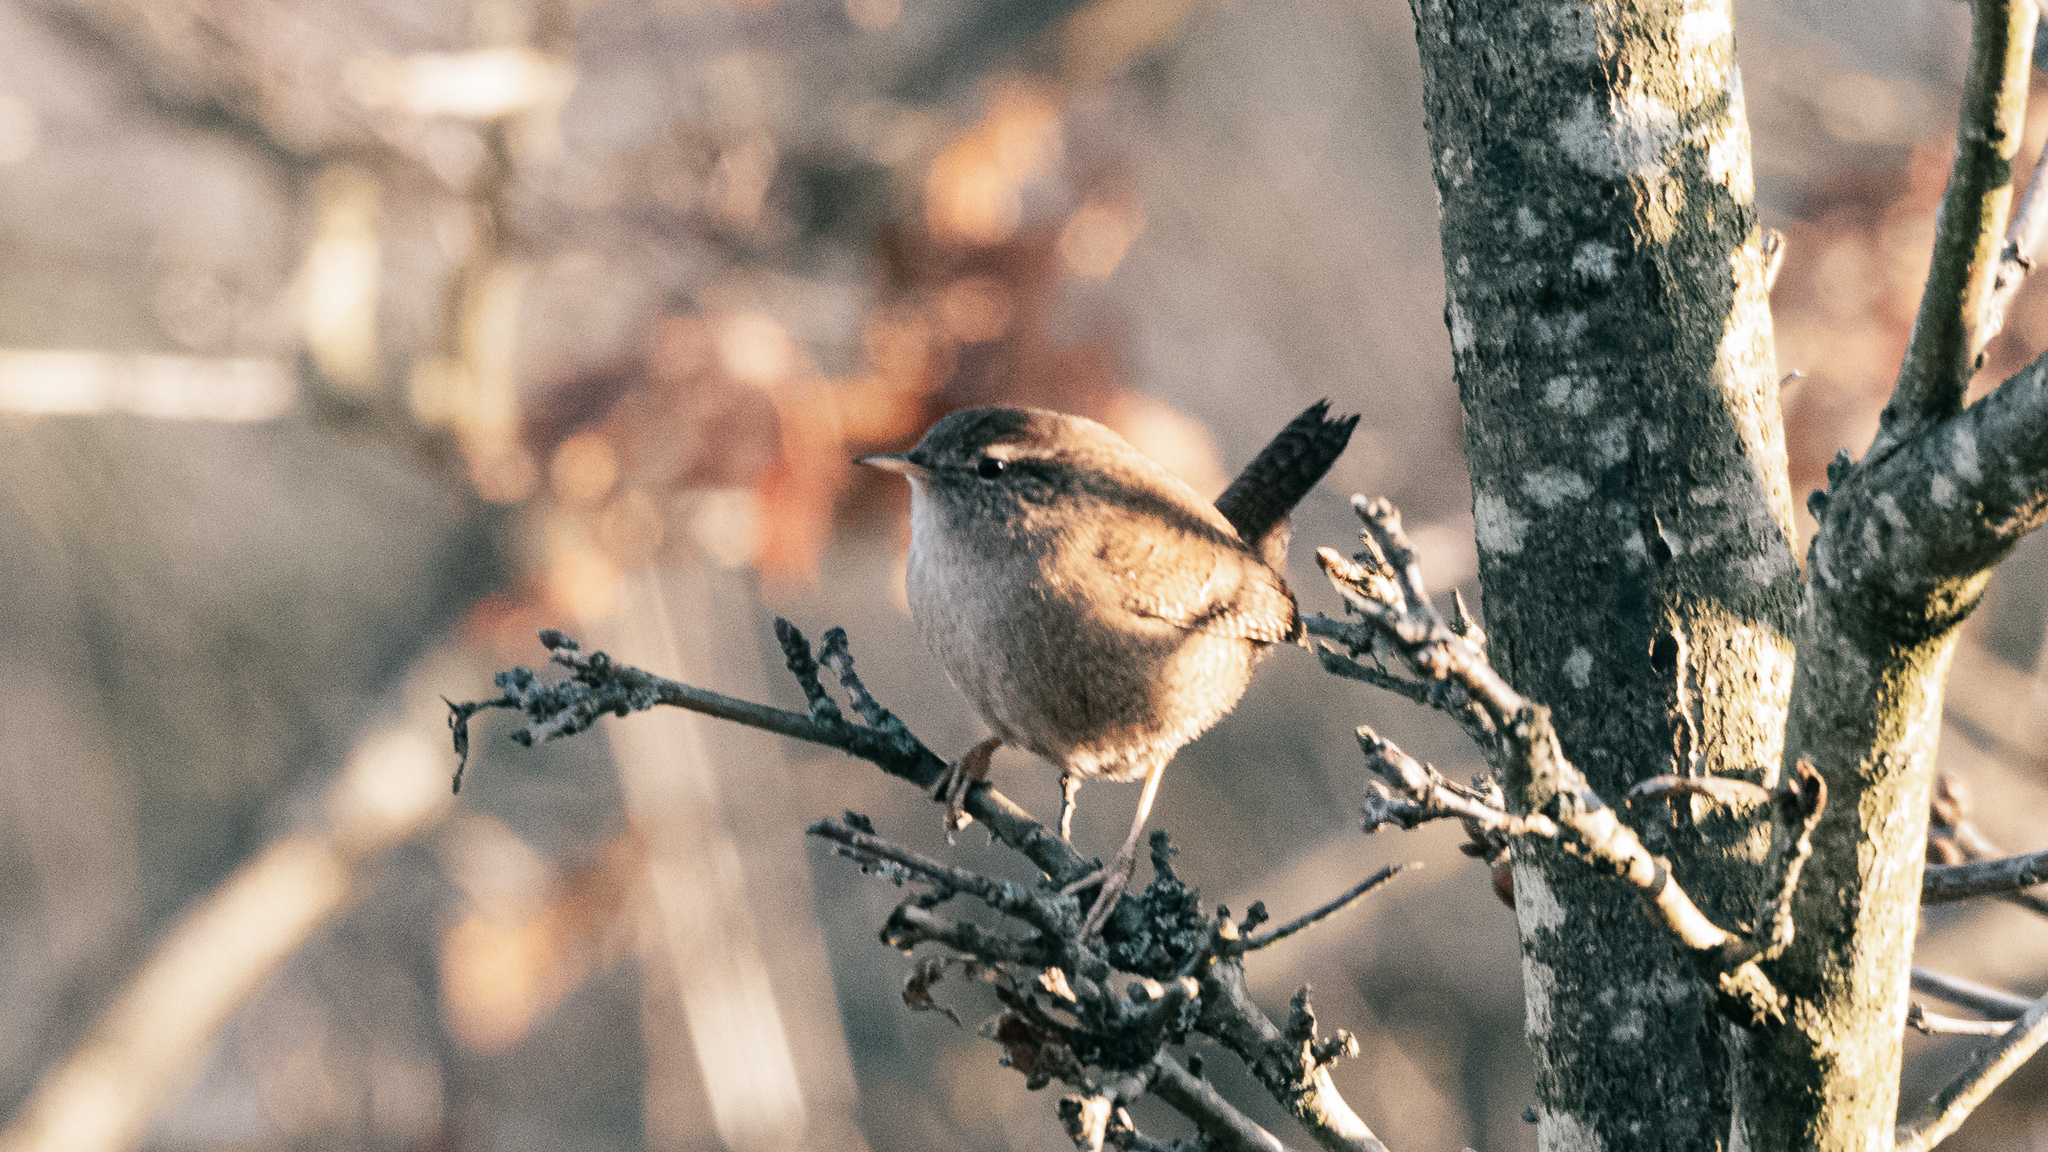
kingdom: Animalia
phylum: Chordata
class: Aves
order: Passeriformes
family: Troglodytidae
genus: Troglodytes
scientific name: Troglodytes troglodytes
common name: Eurasian wren
